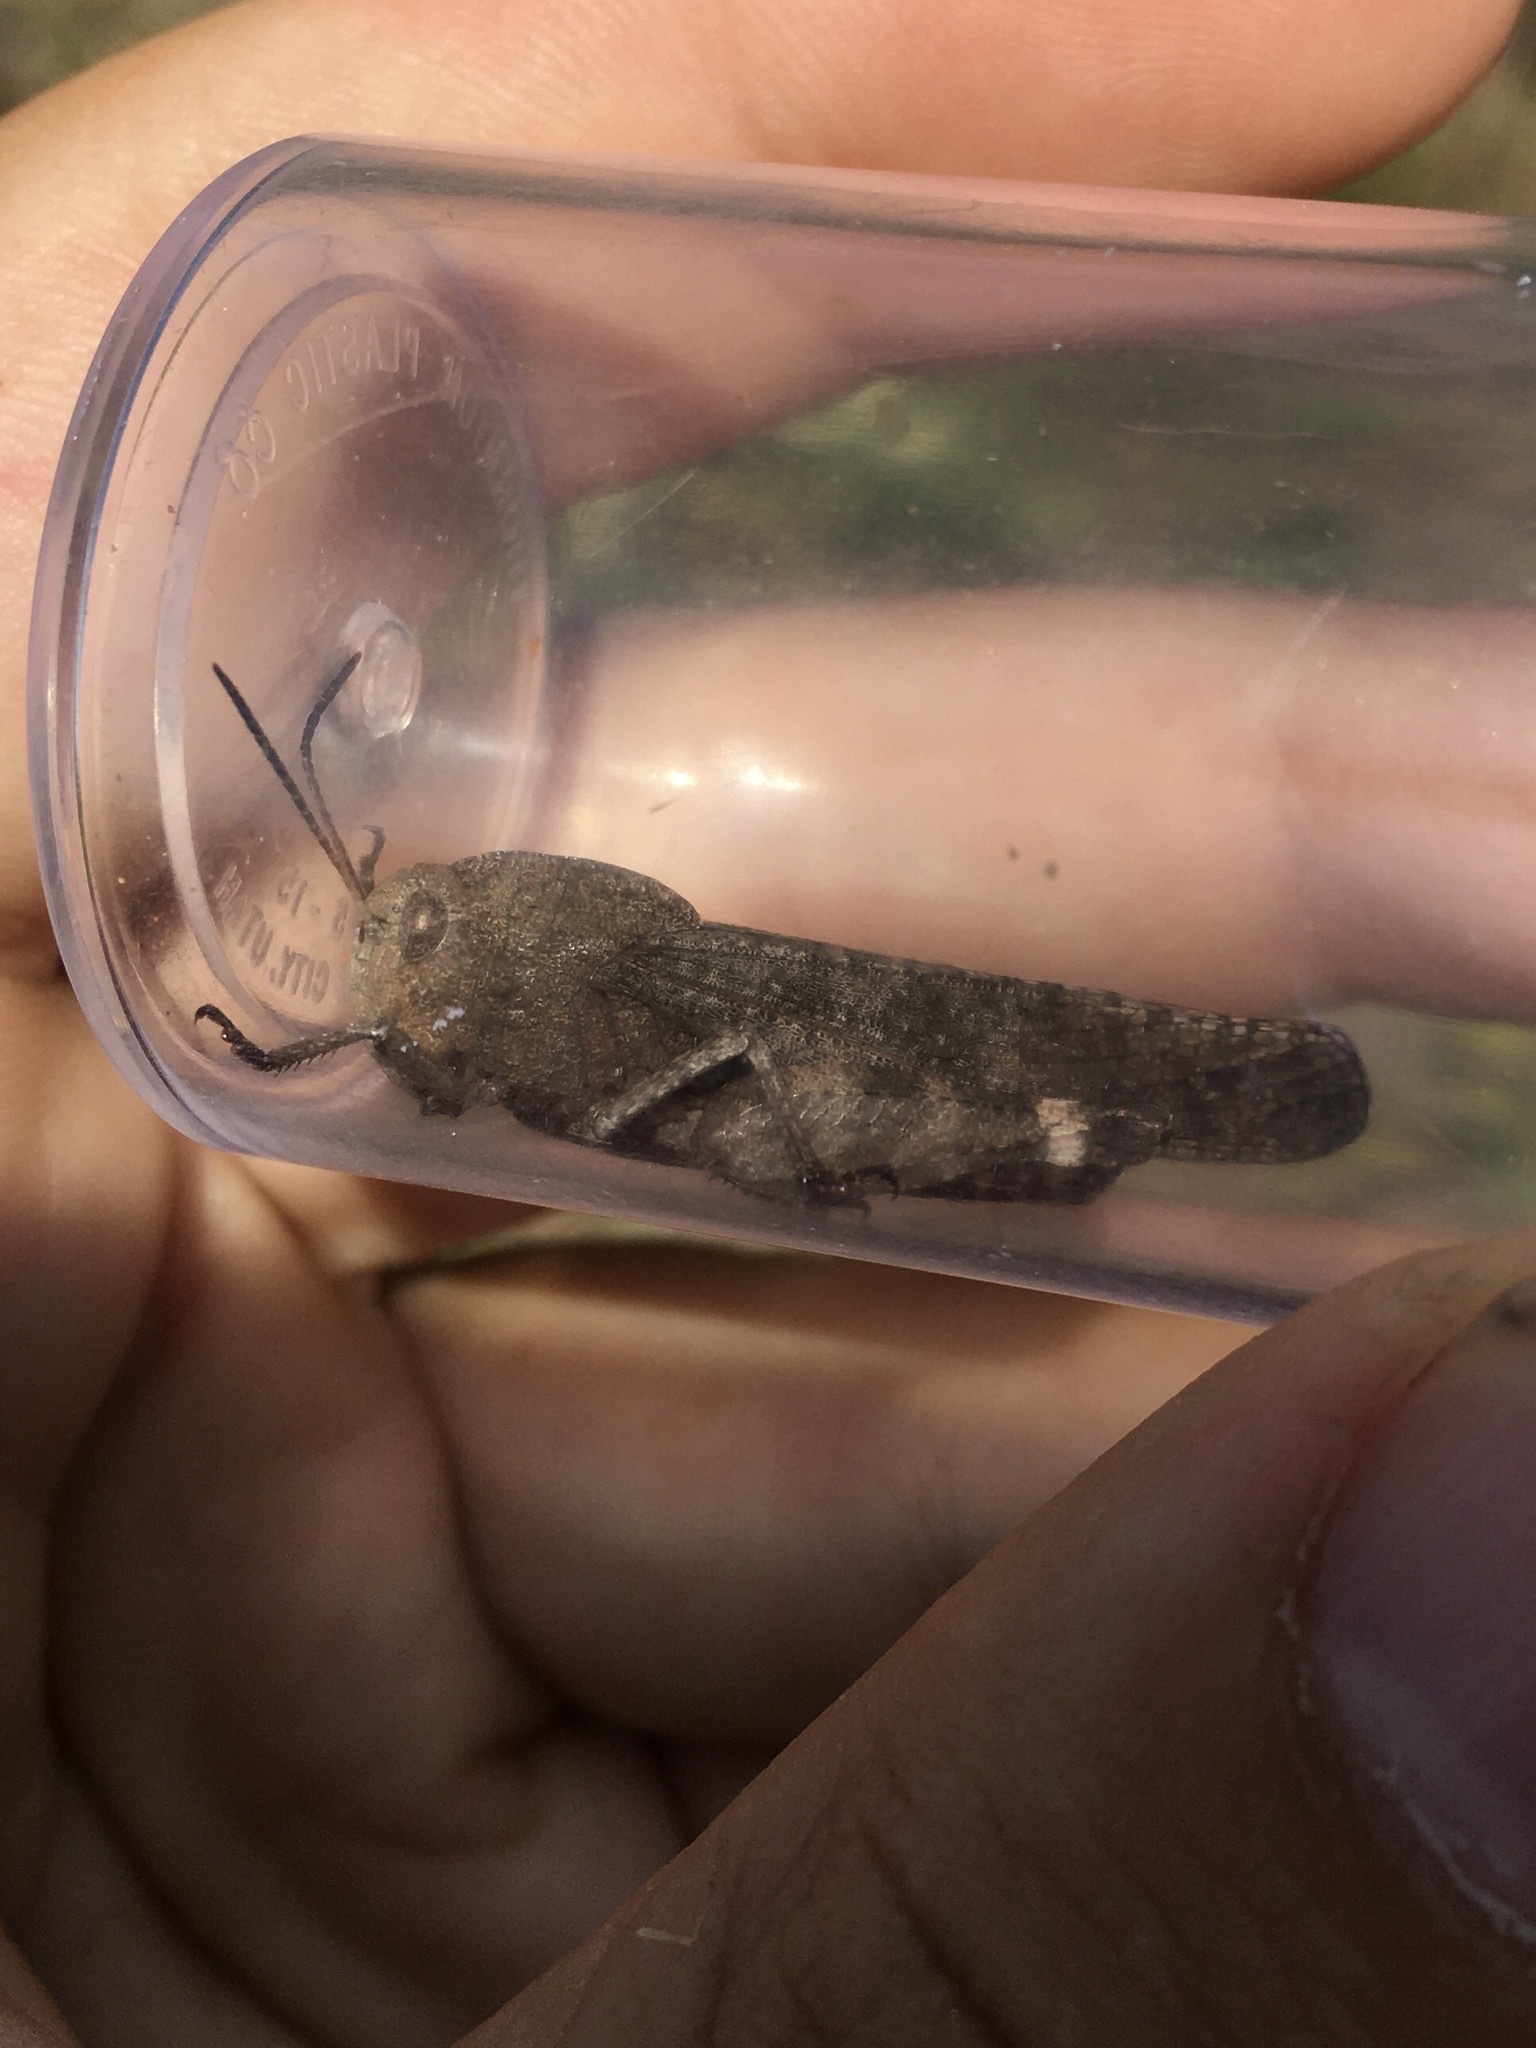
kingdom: Animalia
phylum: Arthropoda
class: Insecta
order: Orthoptera
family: Acrididae
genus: Arphia
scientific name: Arphia xanthoptera
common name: Autumn yellow-winged grasshopper
